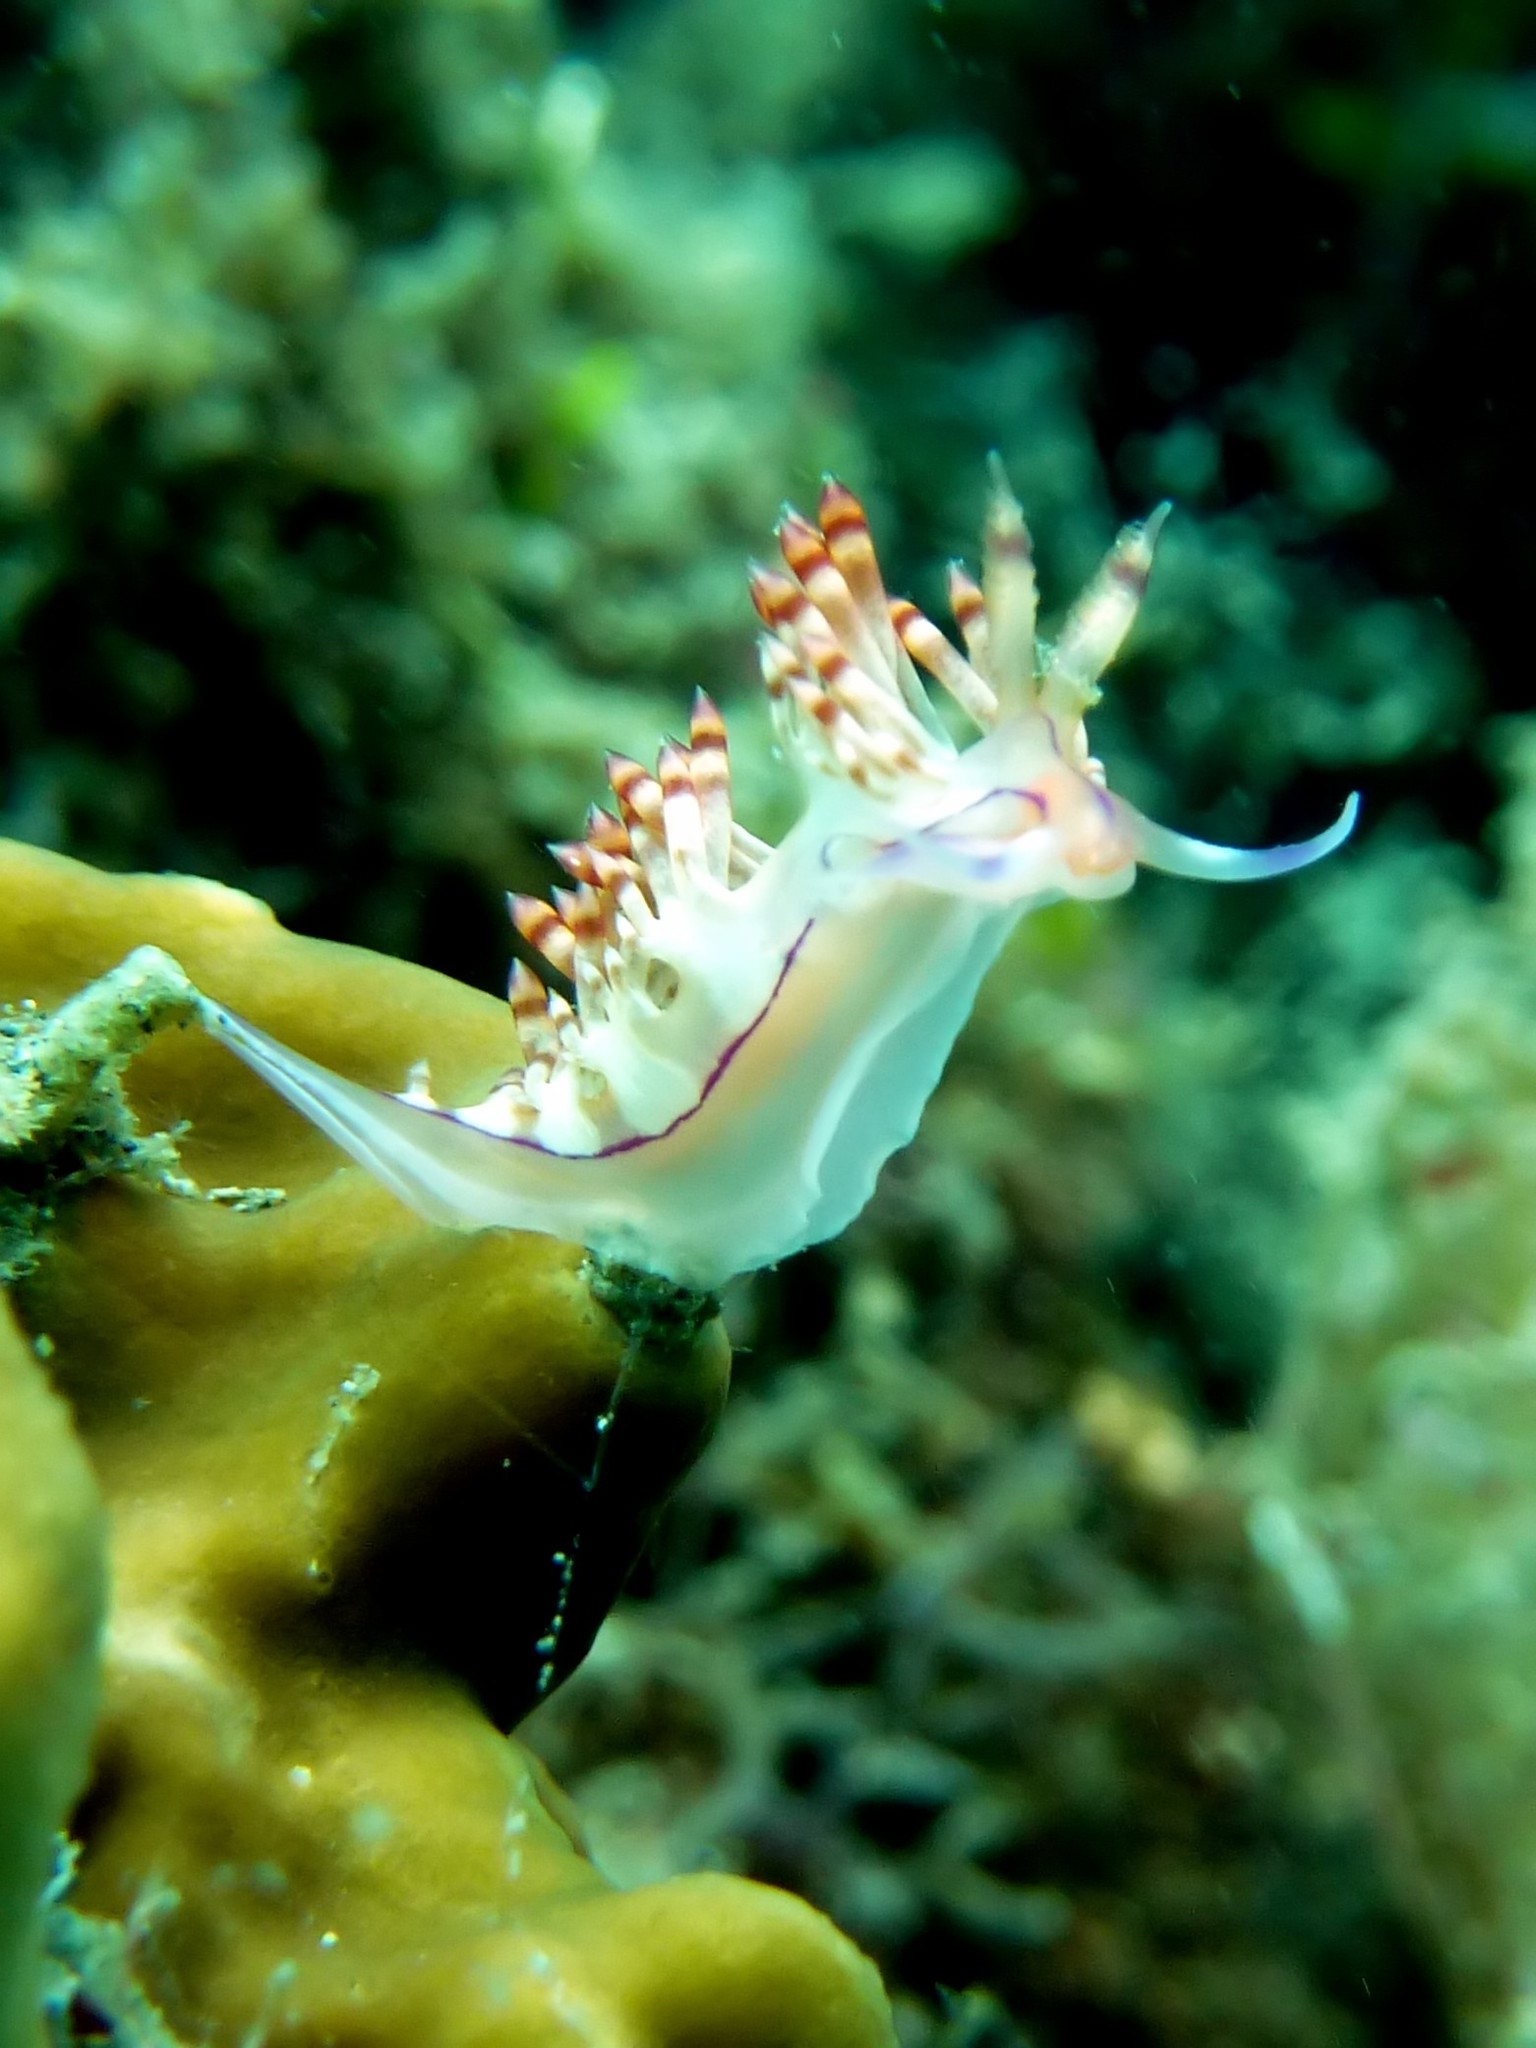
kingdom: Animalia
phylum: Mollusca
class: Gastropoda
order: Nudibranchia
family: Flabellinidae
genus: Coryphellina
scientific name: Coryphellina flamma
